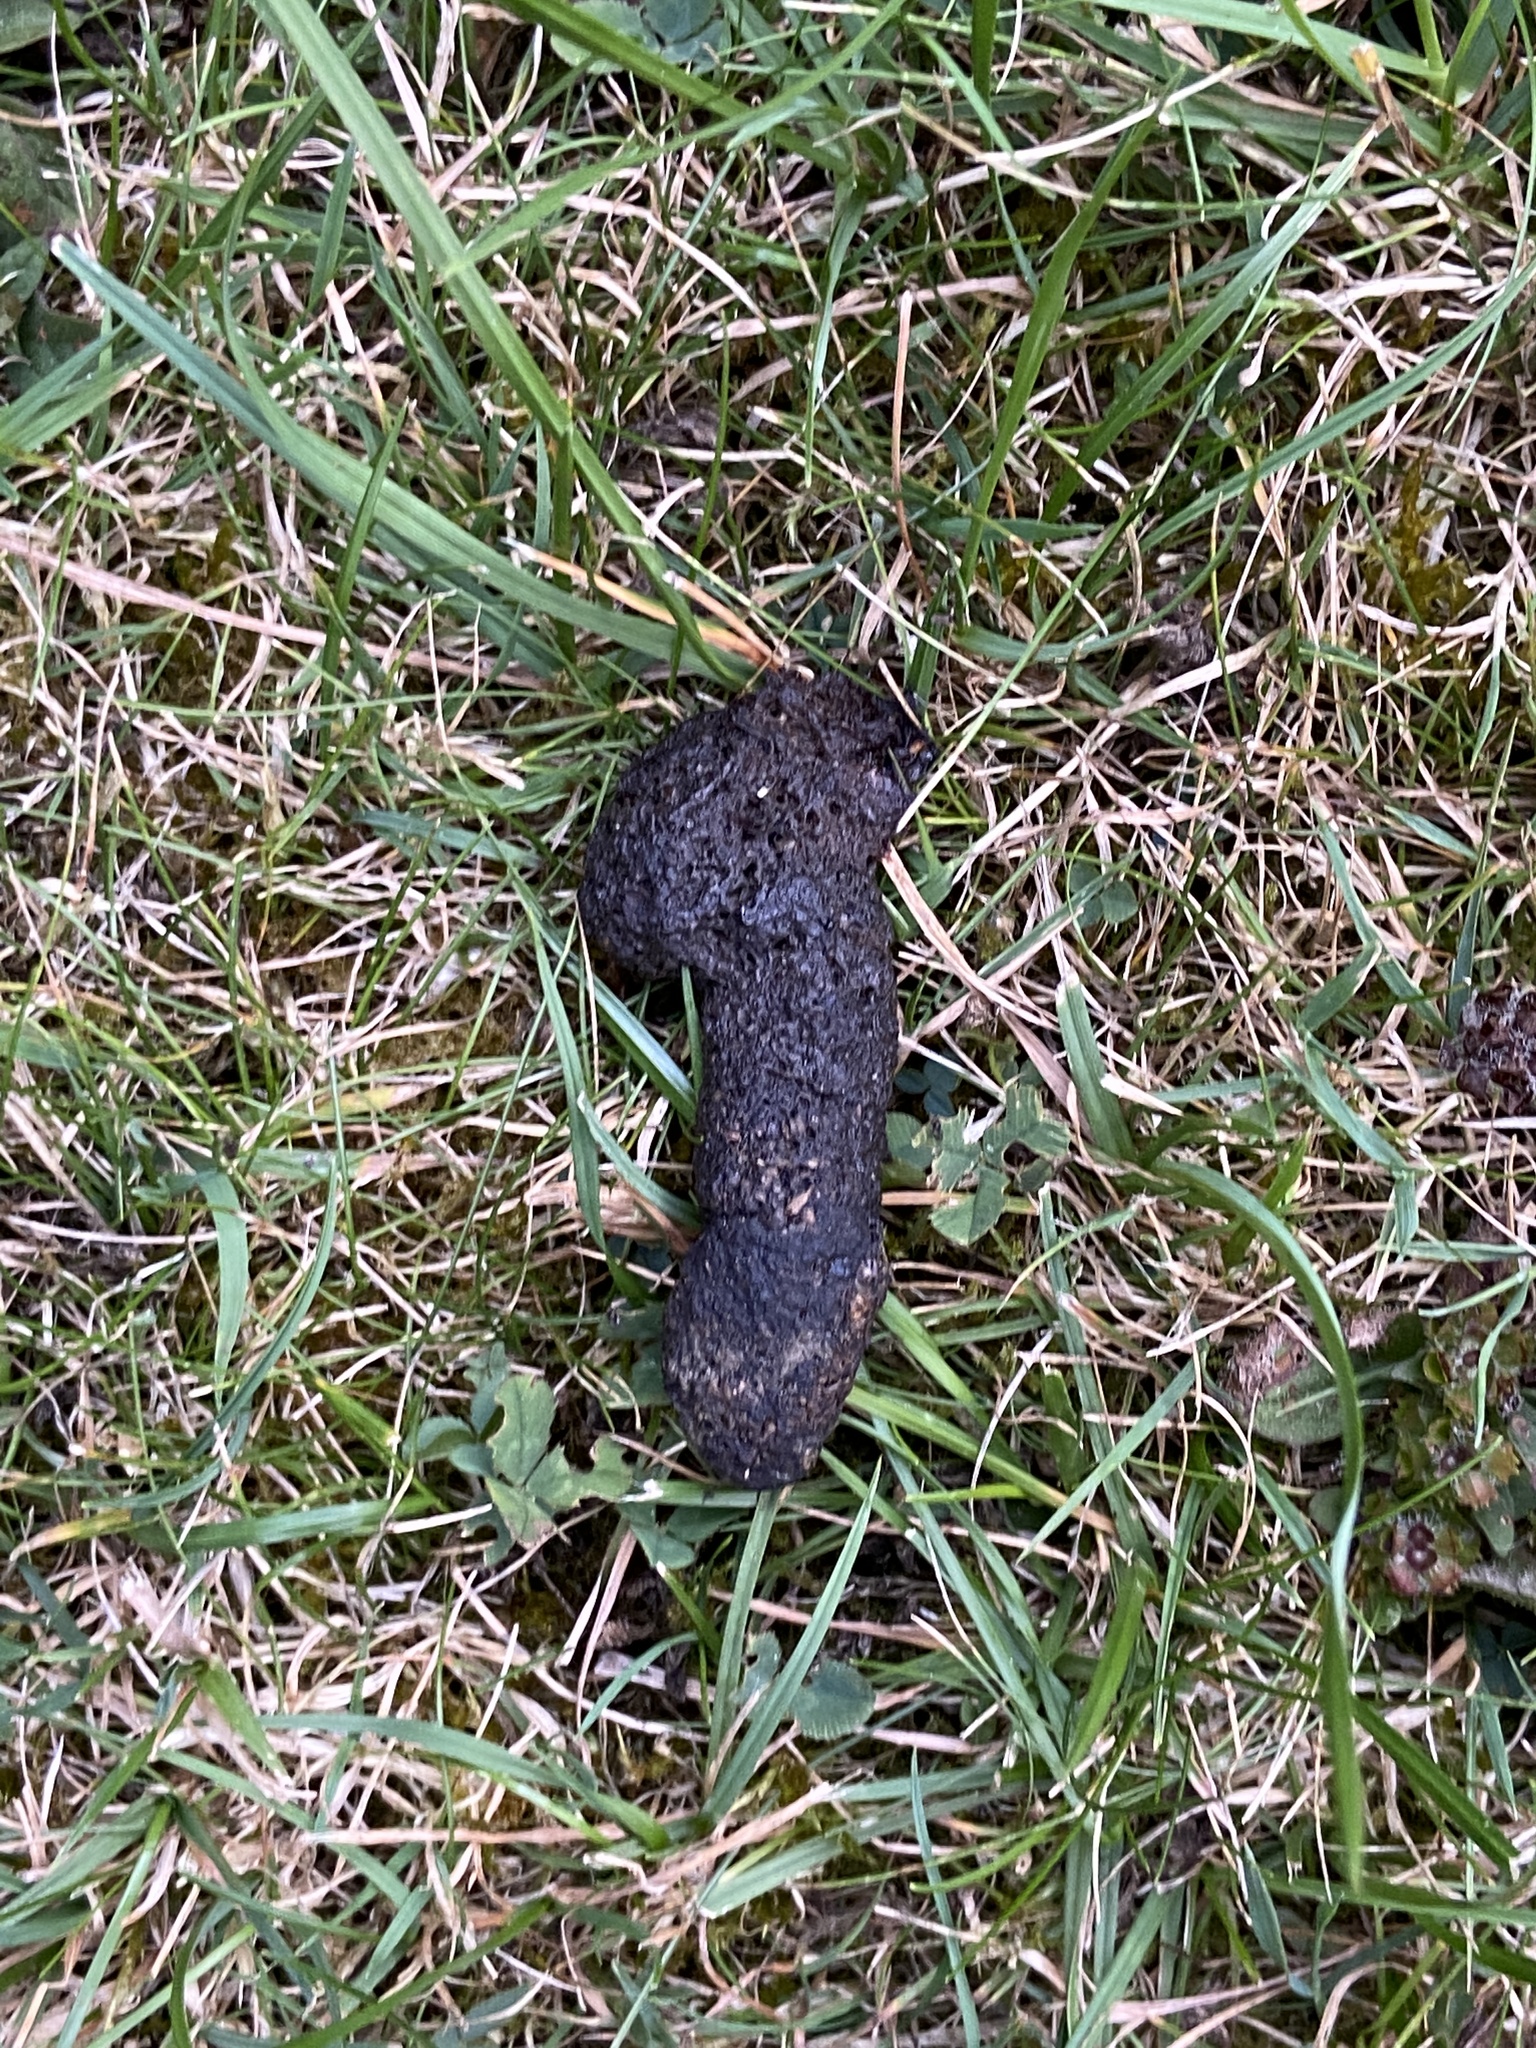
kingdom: Animalia
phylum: Chordata
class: Mammalia
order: Erinaceomorpha
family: Erinaceidae
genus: Erinaceus
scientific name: Erinaceus europaeus
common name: West european hedgehog
